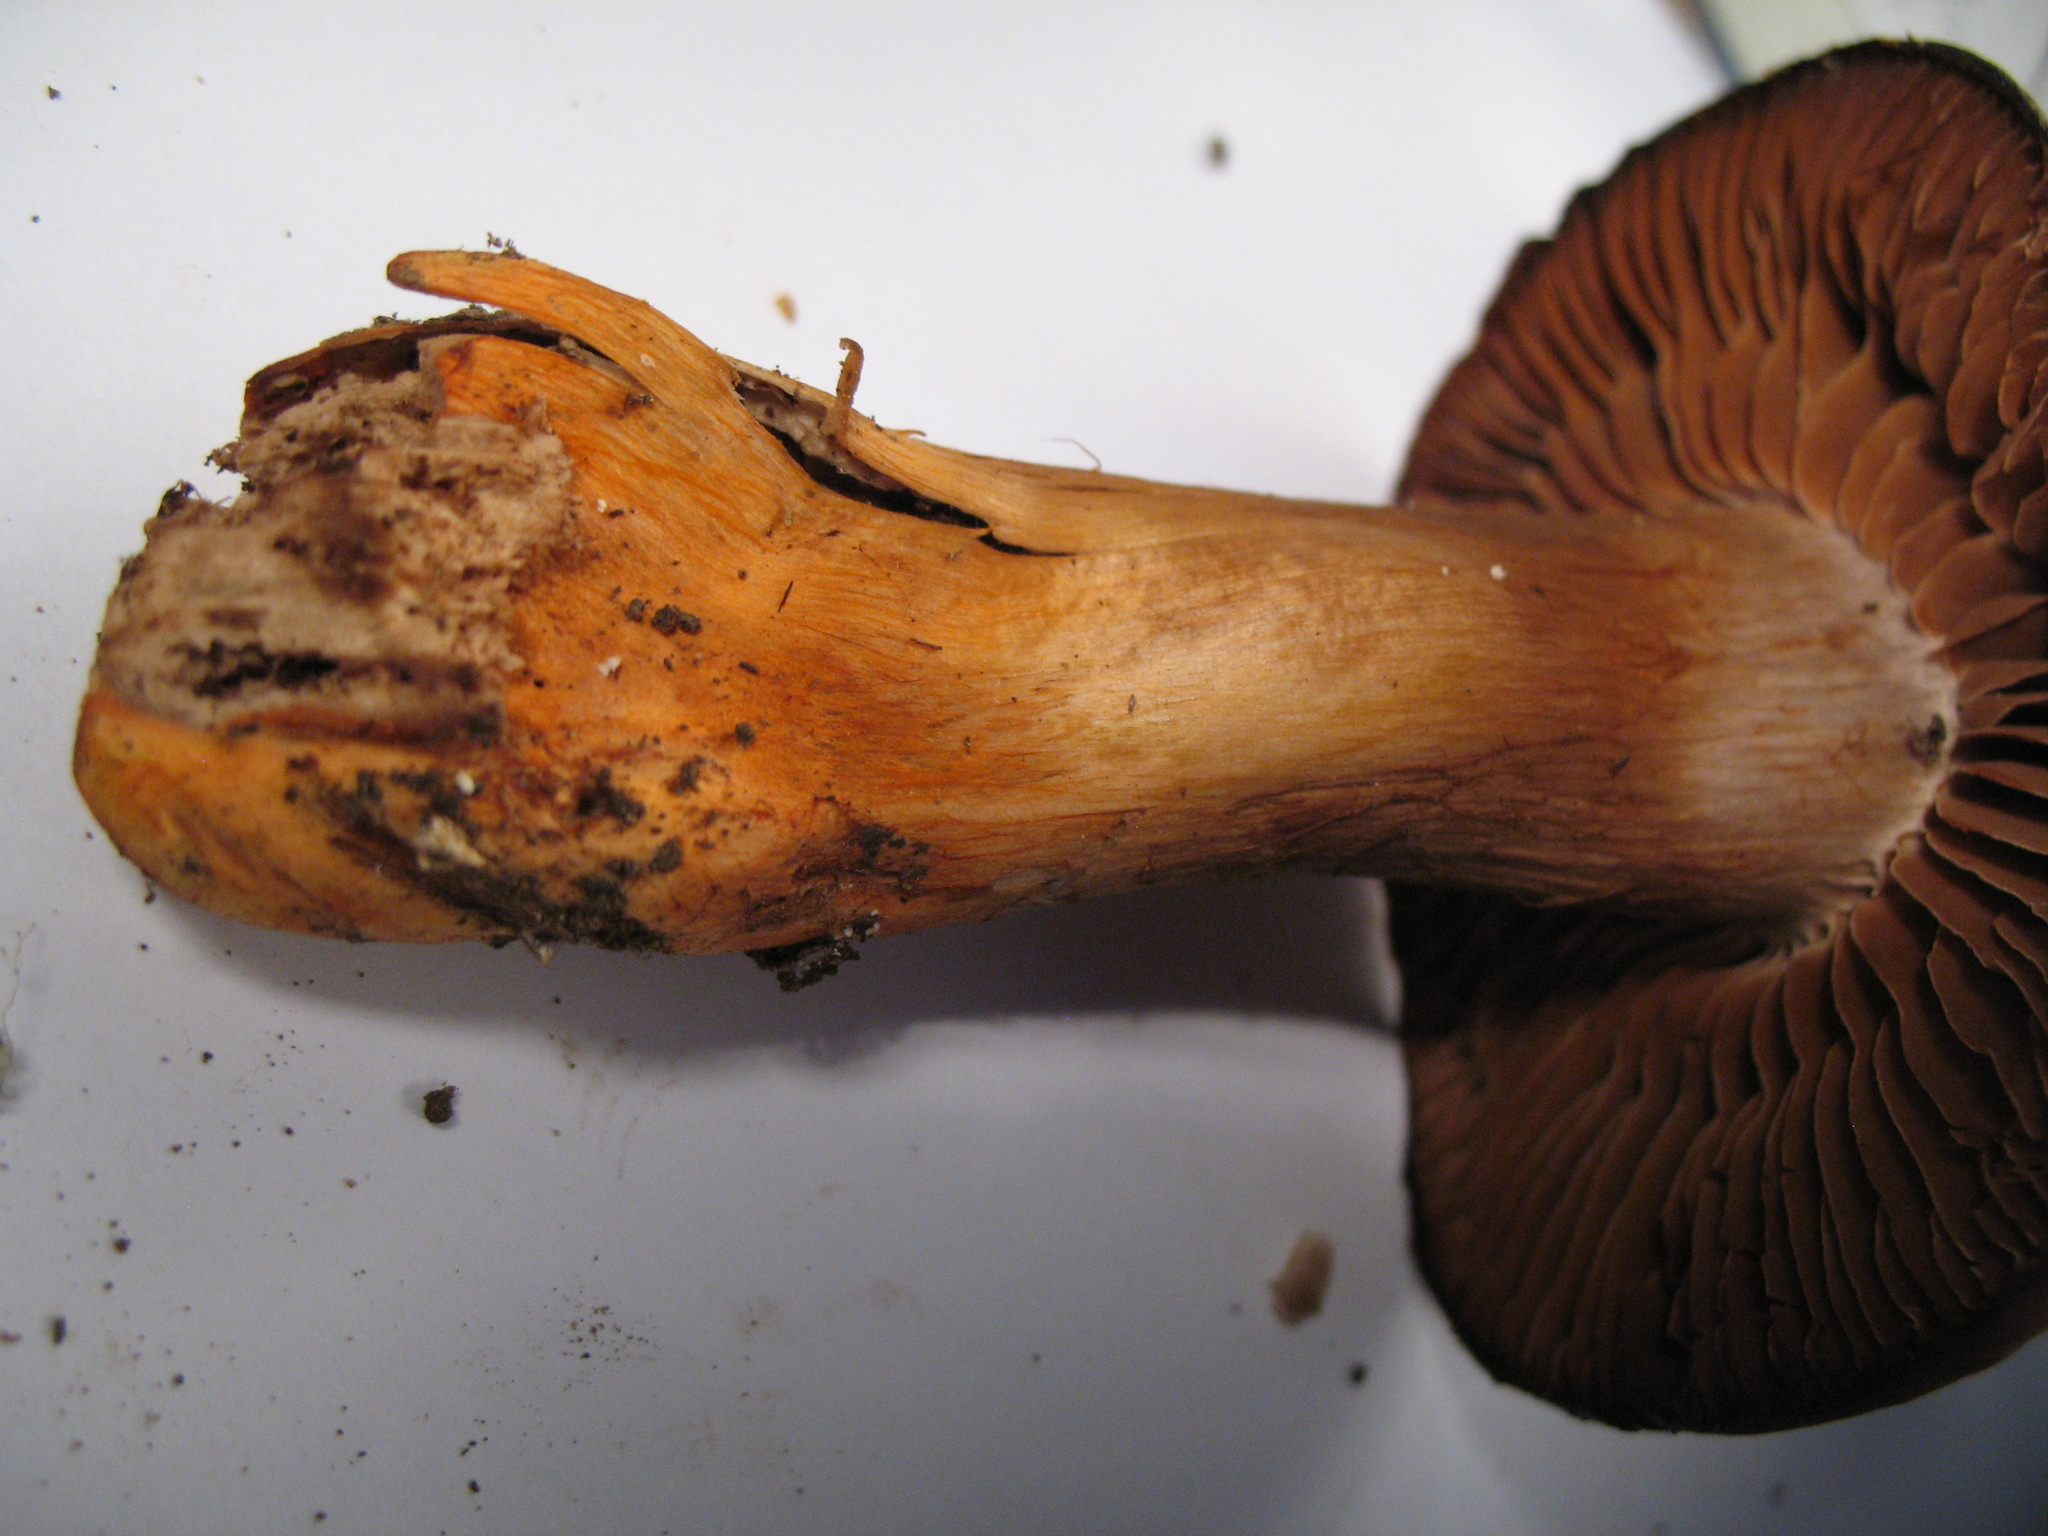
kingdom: Fungi
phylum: Basidiomycota
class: Agaricomycetes
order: Agaricales
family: Cortinariaceae
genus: Cortinarius
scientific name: Cortinarius bulliardii
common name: Hotfoot webcap
